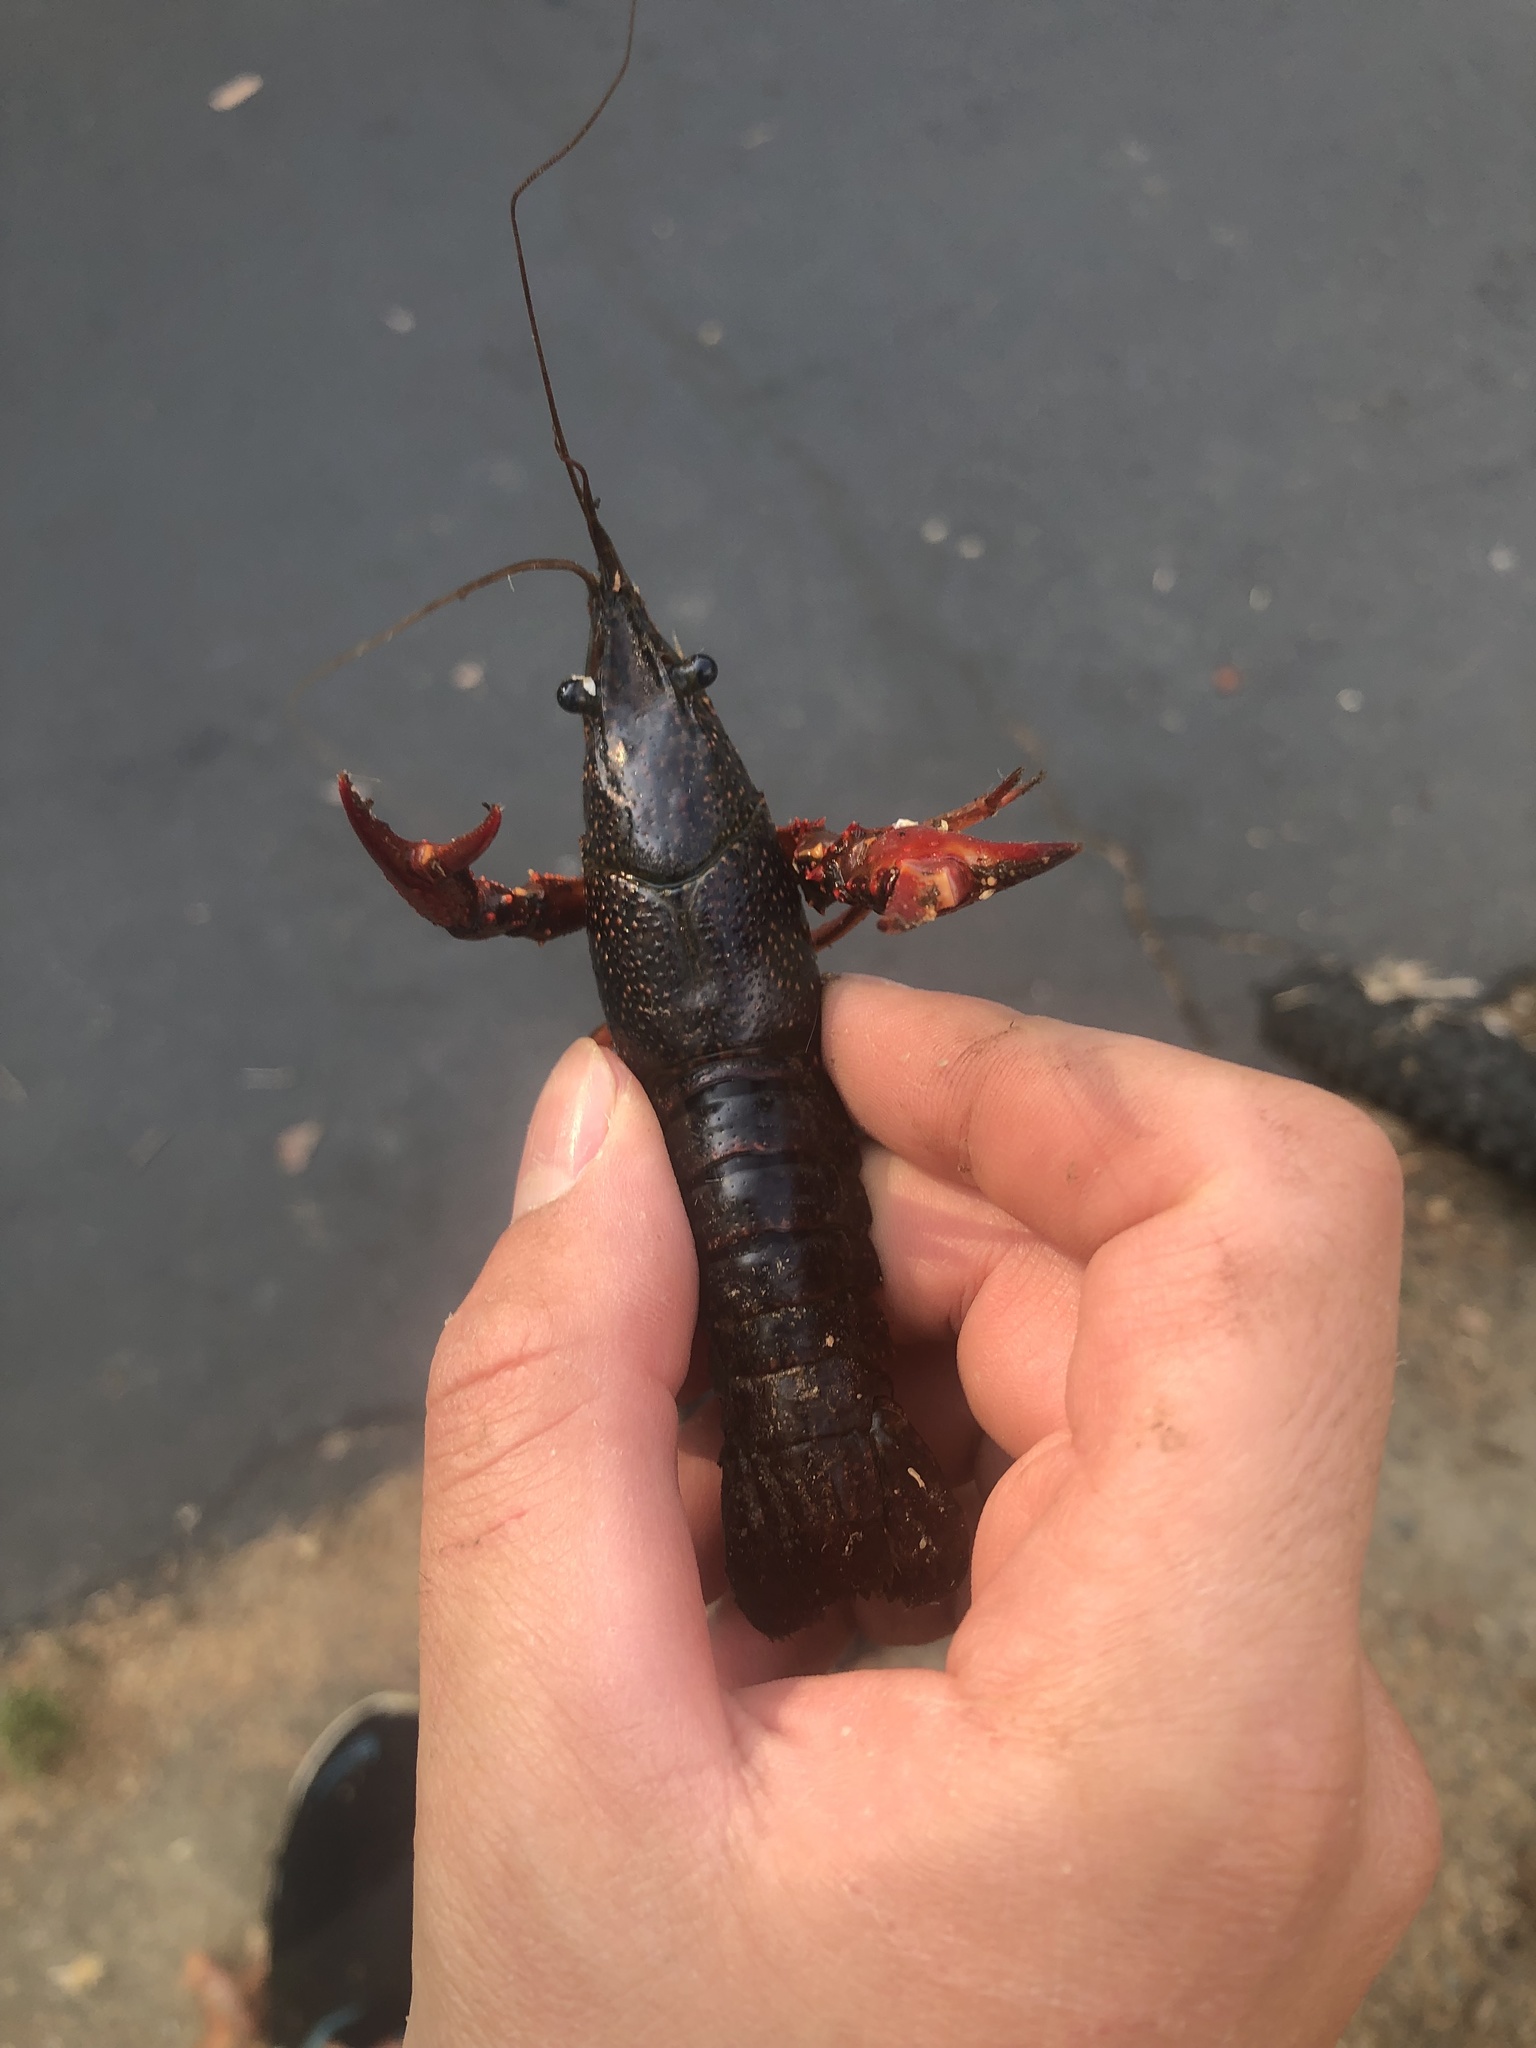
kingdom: Animalia
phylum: Arthropoda
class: Malacostraca
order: Decapoda
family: Cambaridae
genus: Procambarus
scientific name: Procambarus clarkii
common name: Red swamp crayfish
